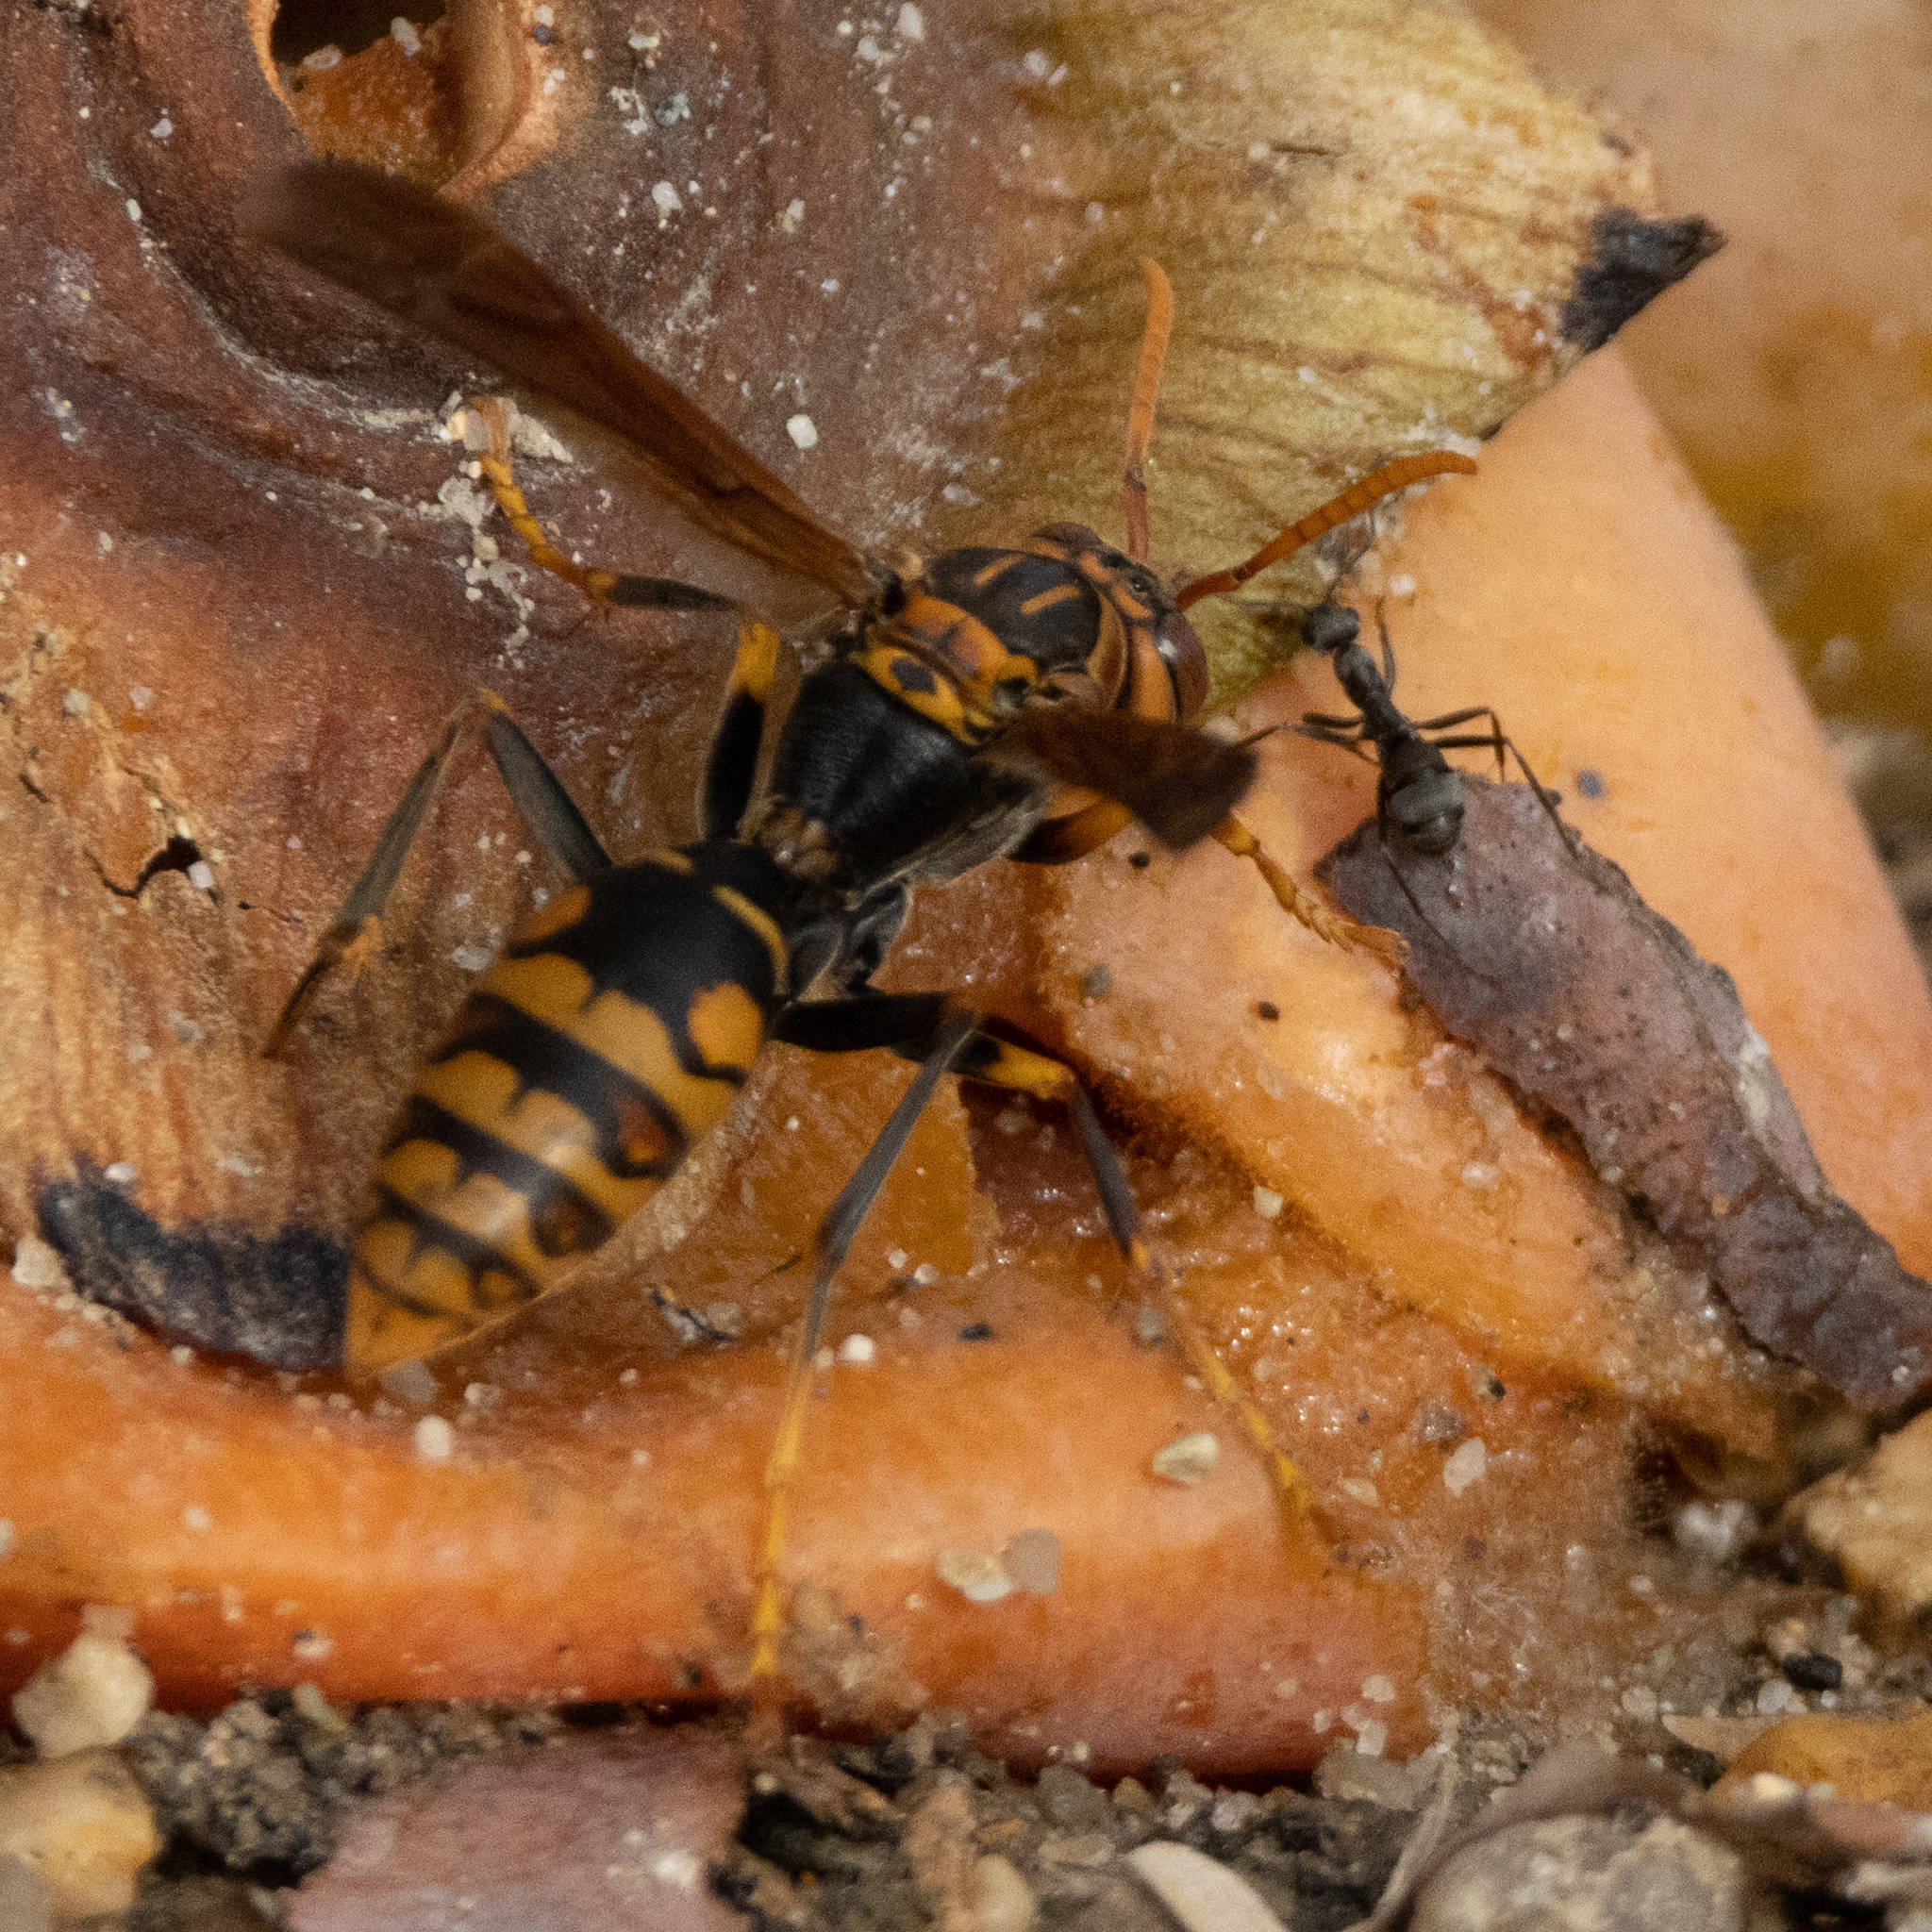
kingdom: Animalia
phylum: Arthropoda
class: Insecta
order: Hymenoptera
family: Eumenidae
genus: Polistes
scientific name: Polistes jokahamae
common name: Paper wasp
